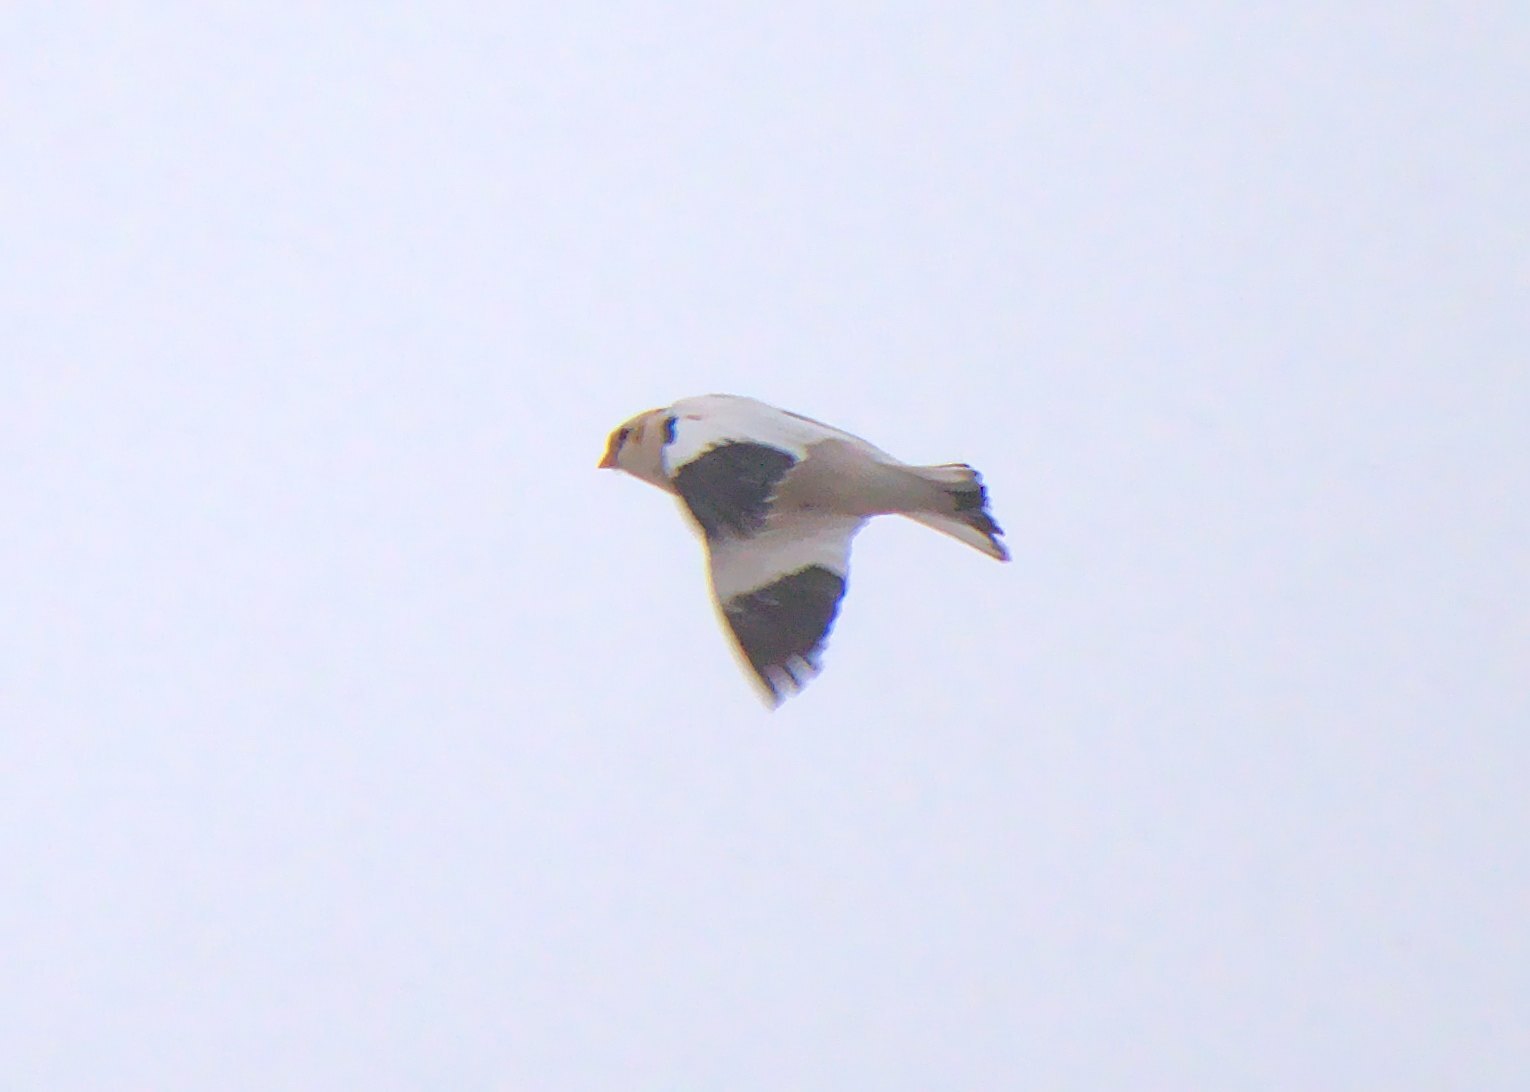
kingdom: Animalia
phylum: Chordata
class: Aves
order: Passeriformes
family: Calcariidae
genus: Plectrophenax
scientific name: Plectrophenax nivalis
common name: Snow bunting
